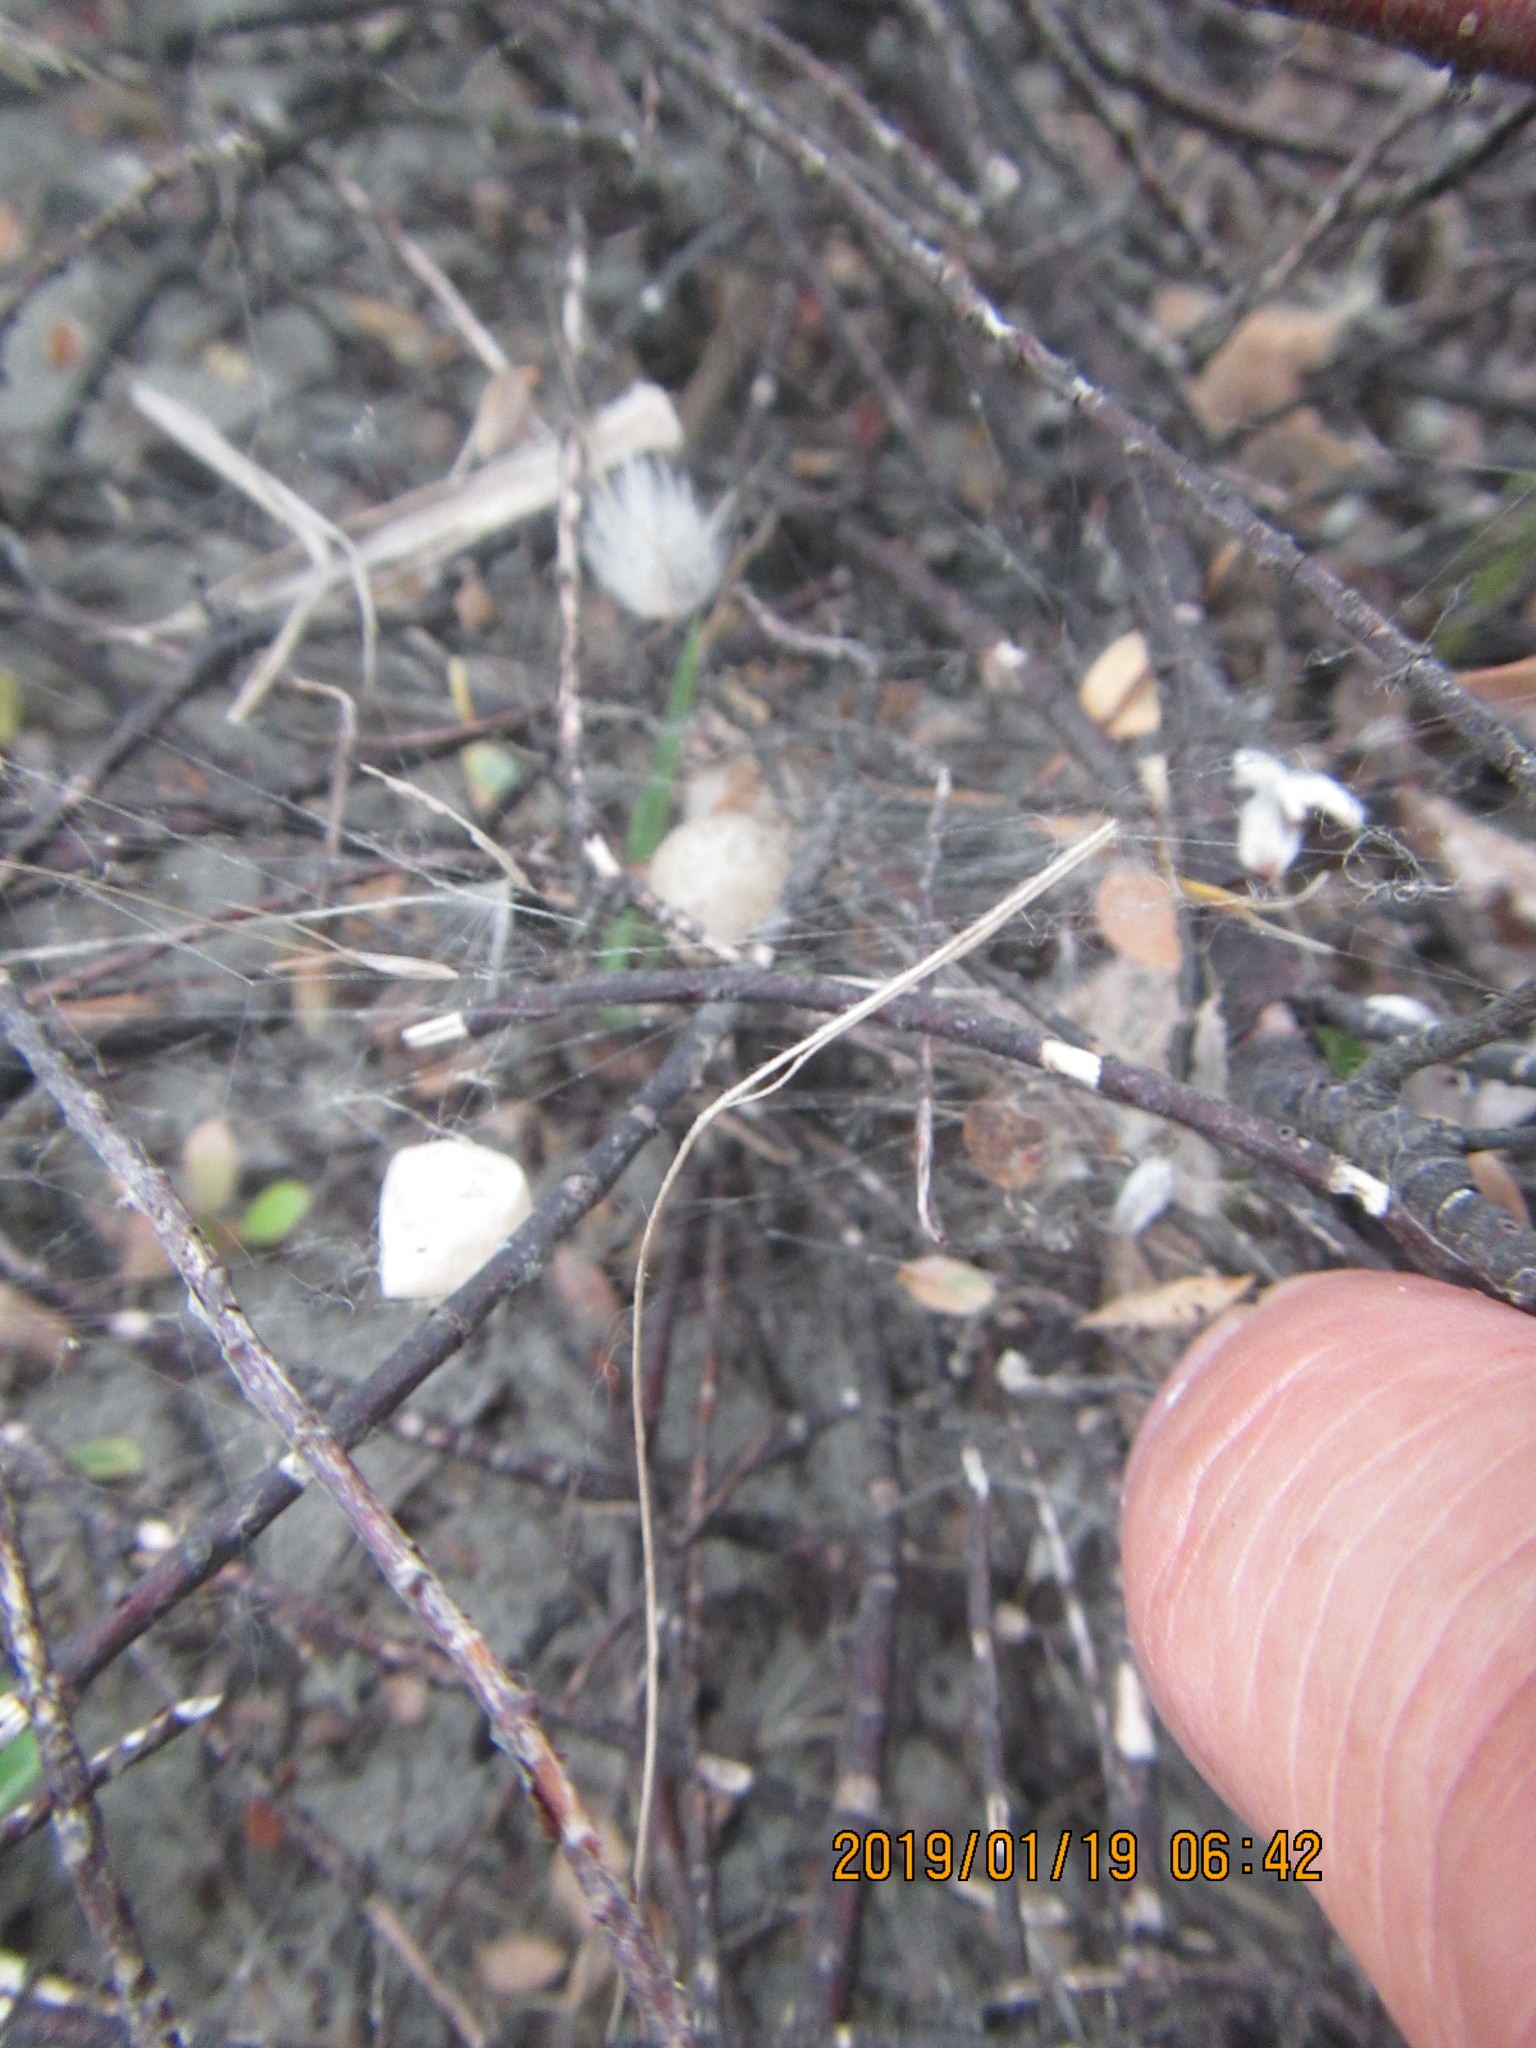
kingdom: Animalia
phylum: Arthropoda
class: Arachnida
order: Araneae
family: Theridiidae
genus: Latrodectus
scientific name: Latrodectus katipo
